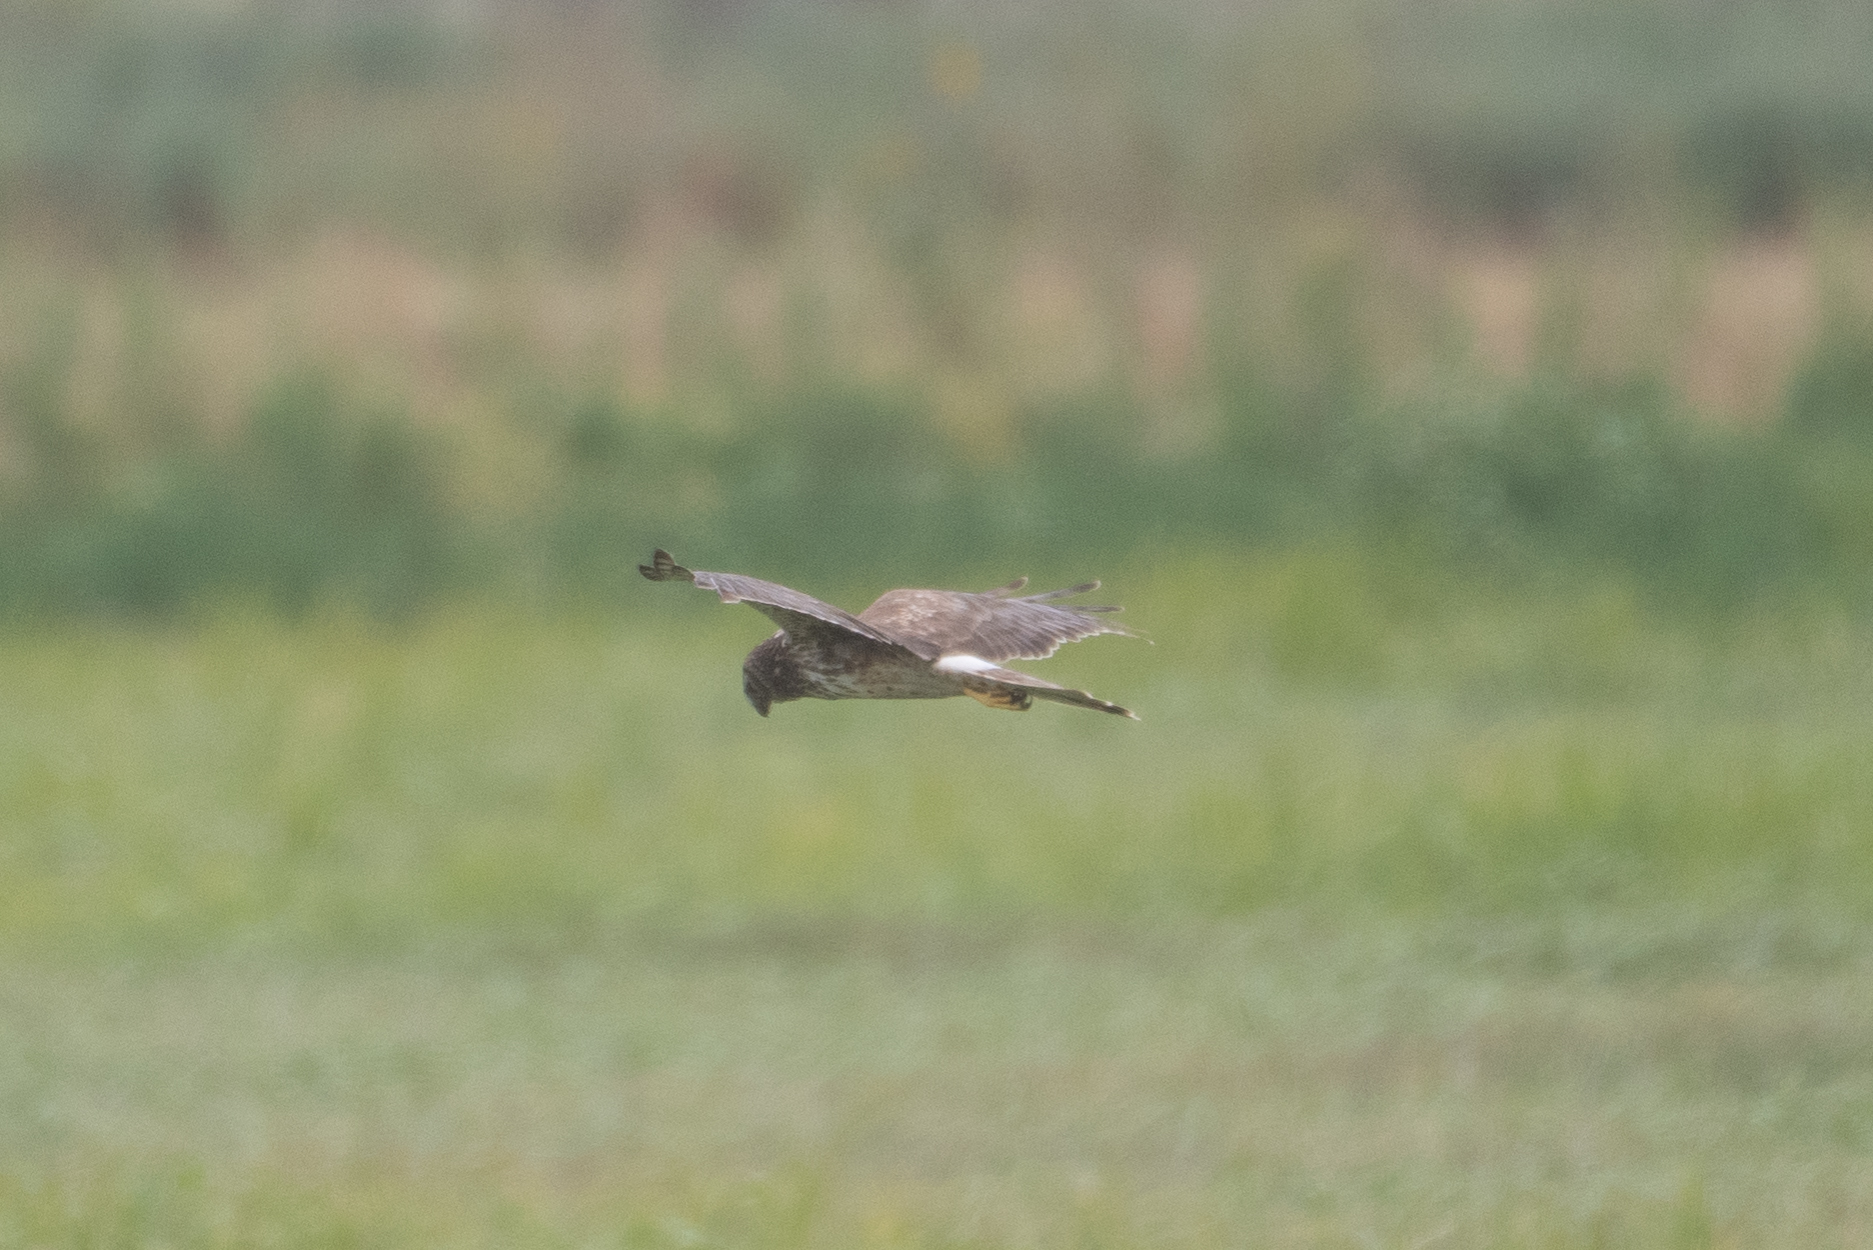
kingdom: Animalia
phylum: Chordata
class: Aves
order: Accipitriformes
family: Accipitridae
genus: Circus
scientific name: Circus cyaneus
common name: Hen harrier
